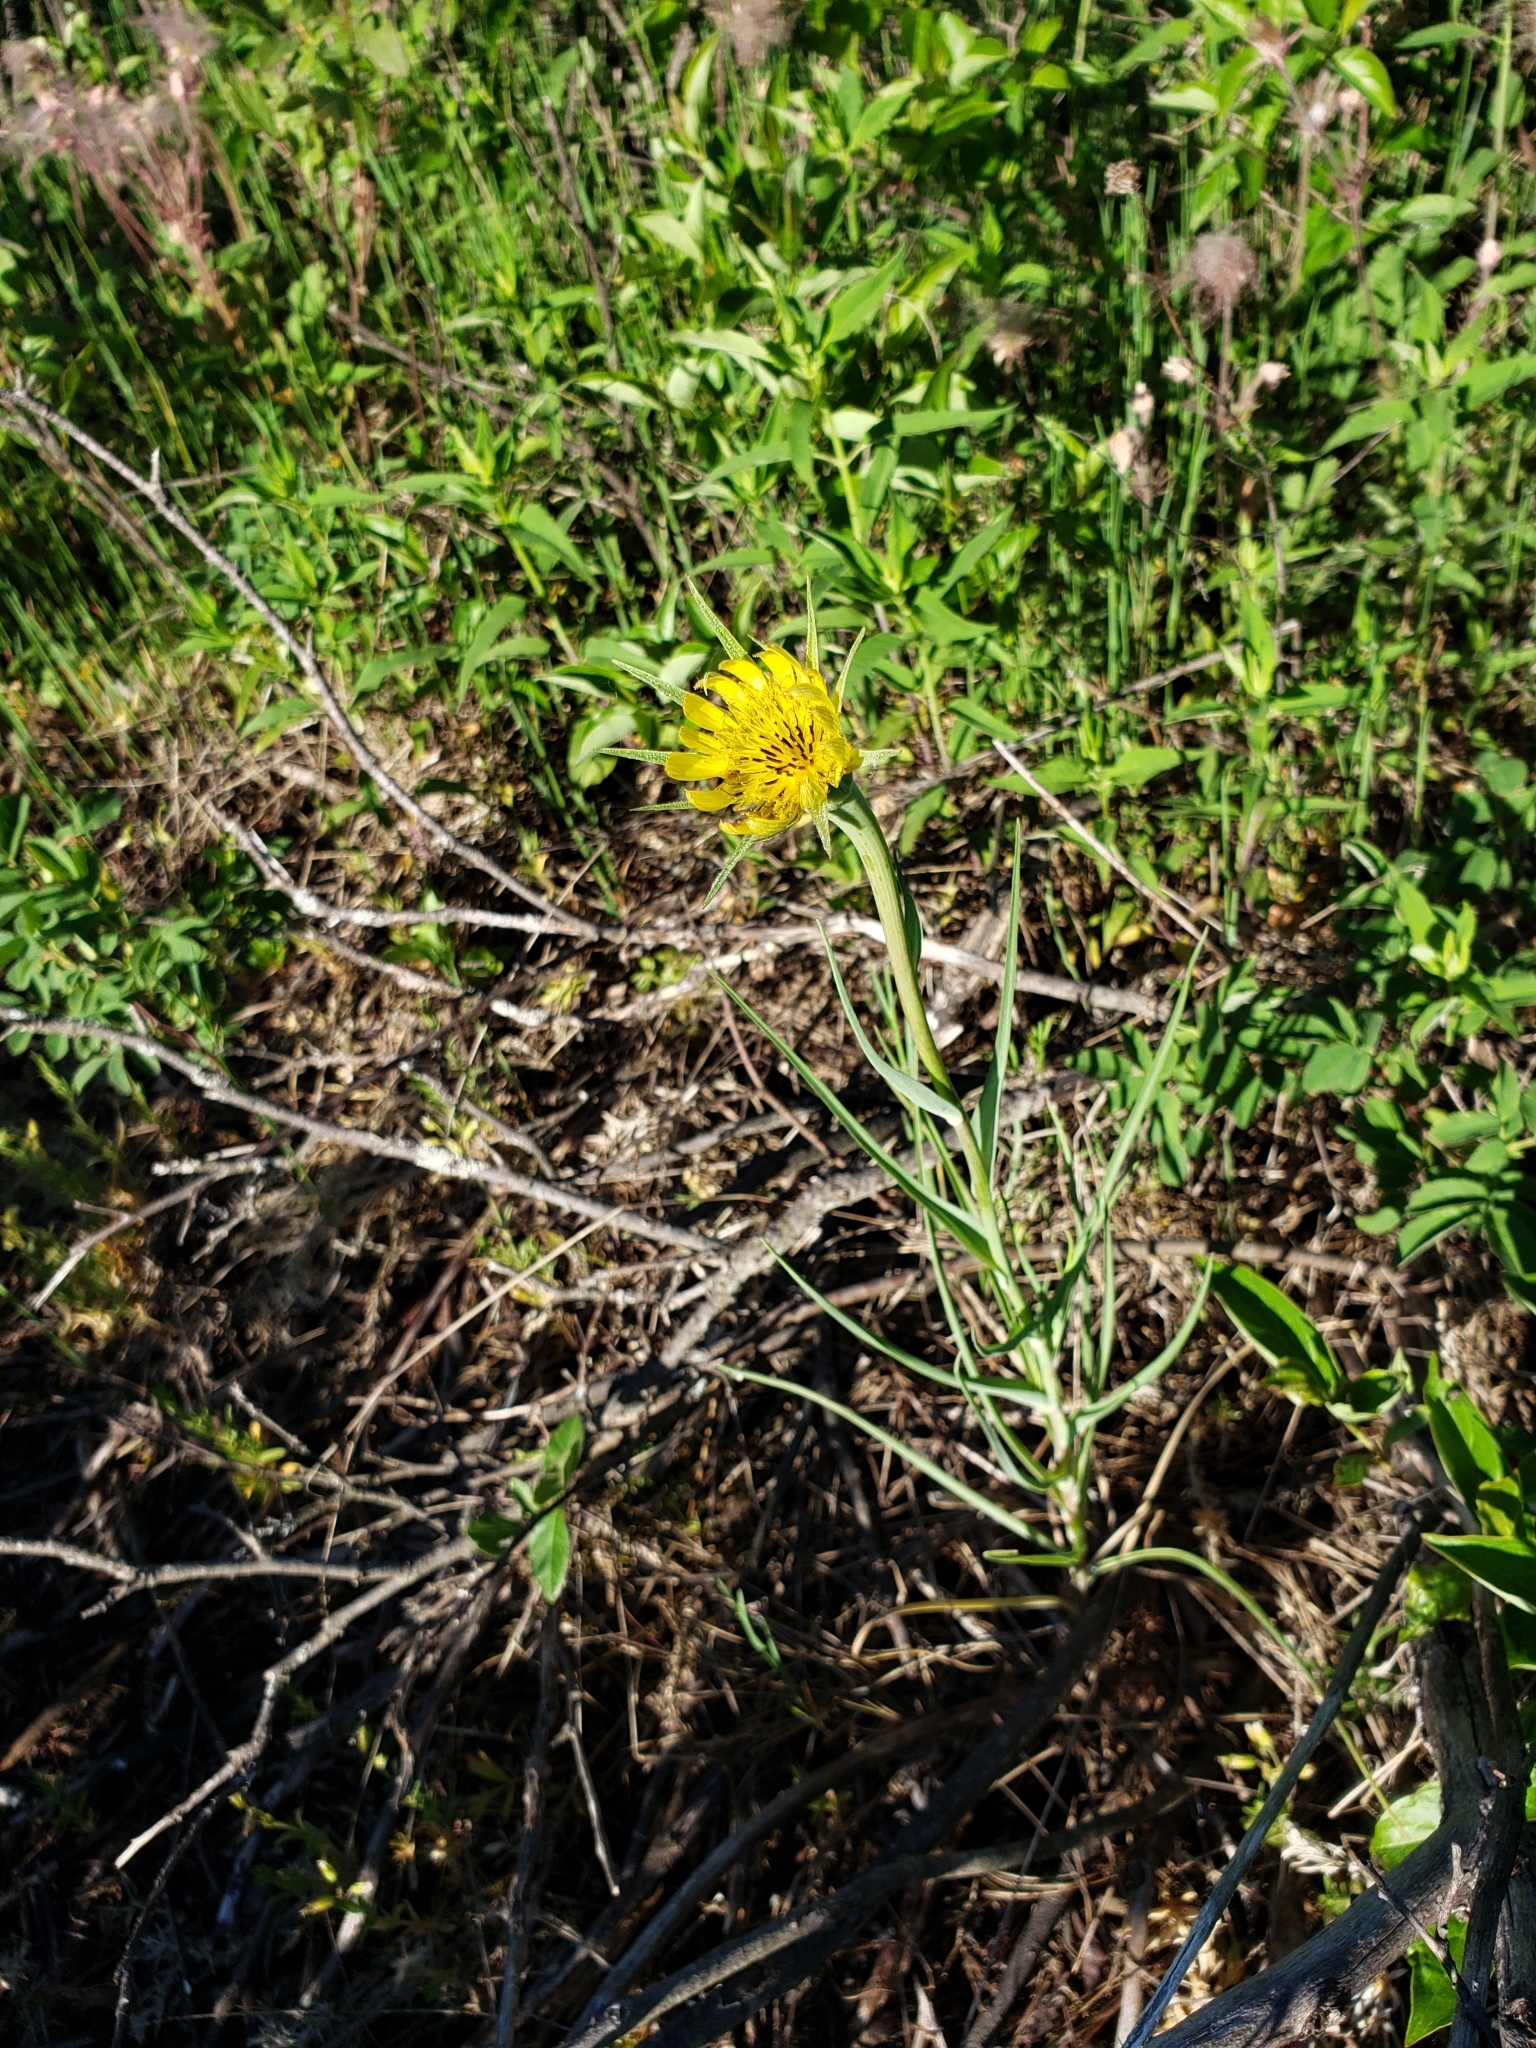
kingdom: Plantae
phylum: Tracheophyta
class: Magnoliopsida
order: Asterales
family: Asteraceae
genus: Tragopogon
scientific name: Tragopogon dubius
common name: Yellow salsify
